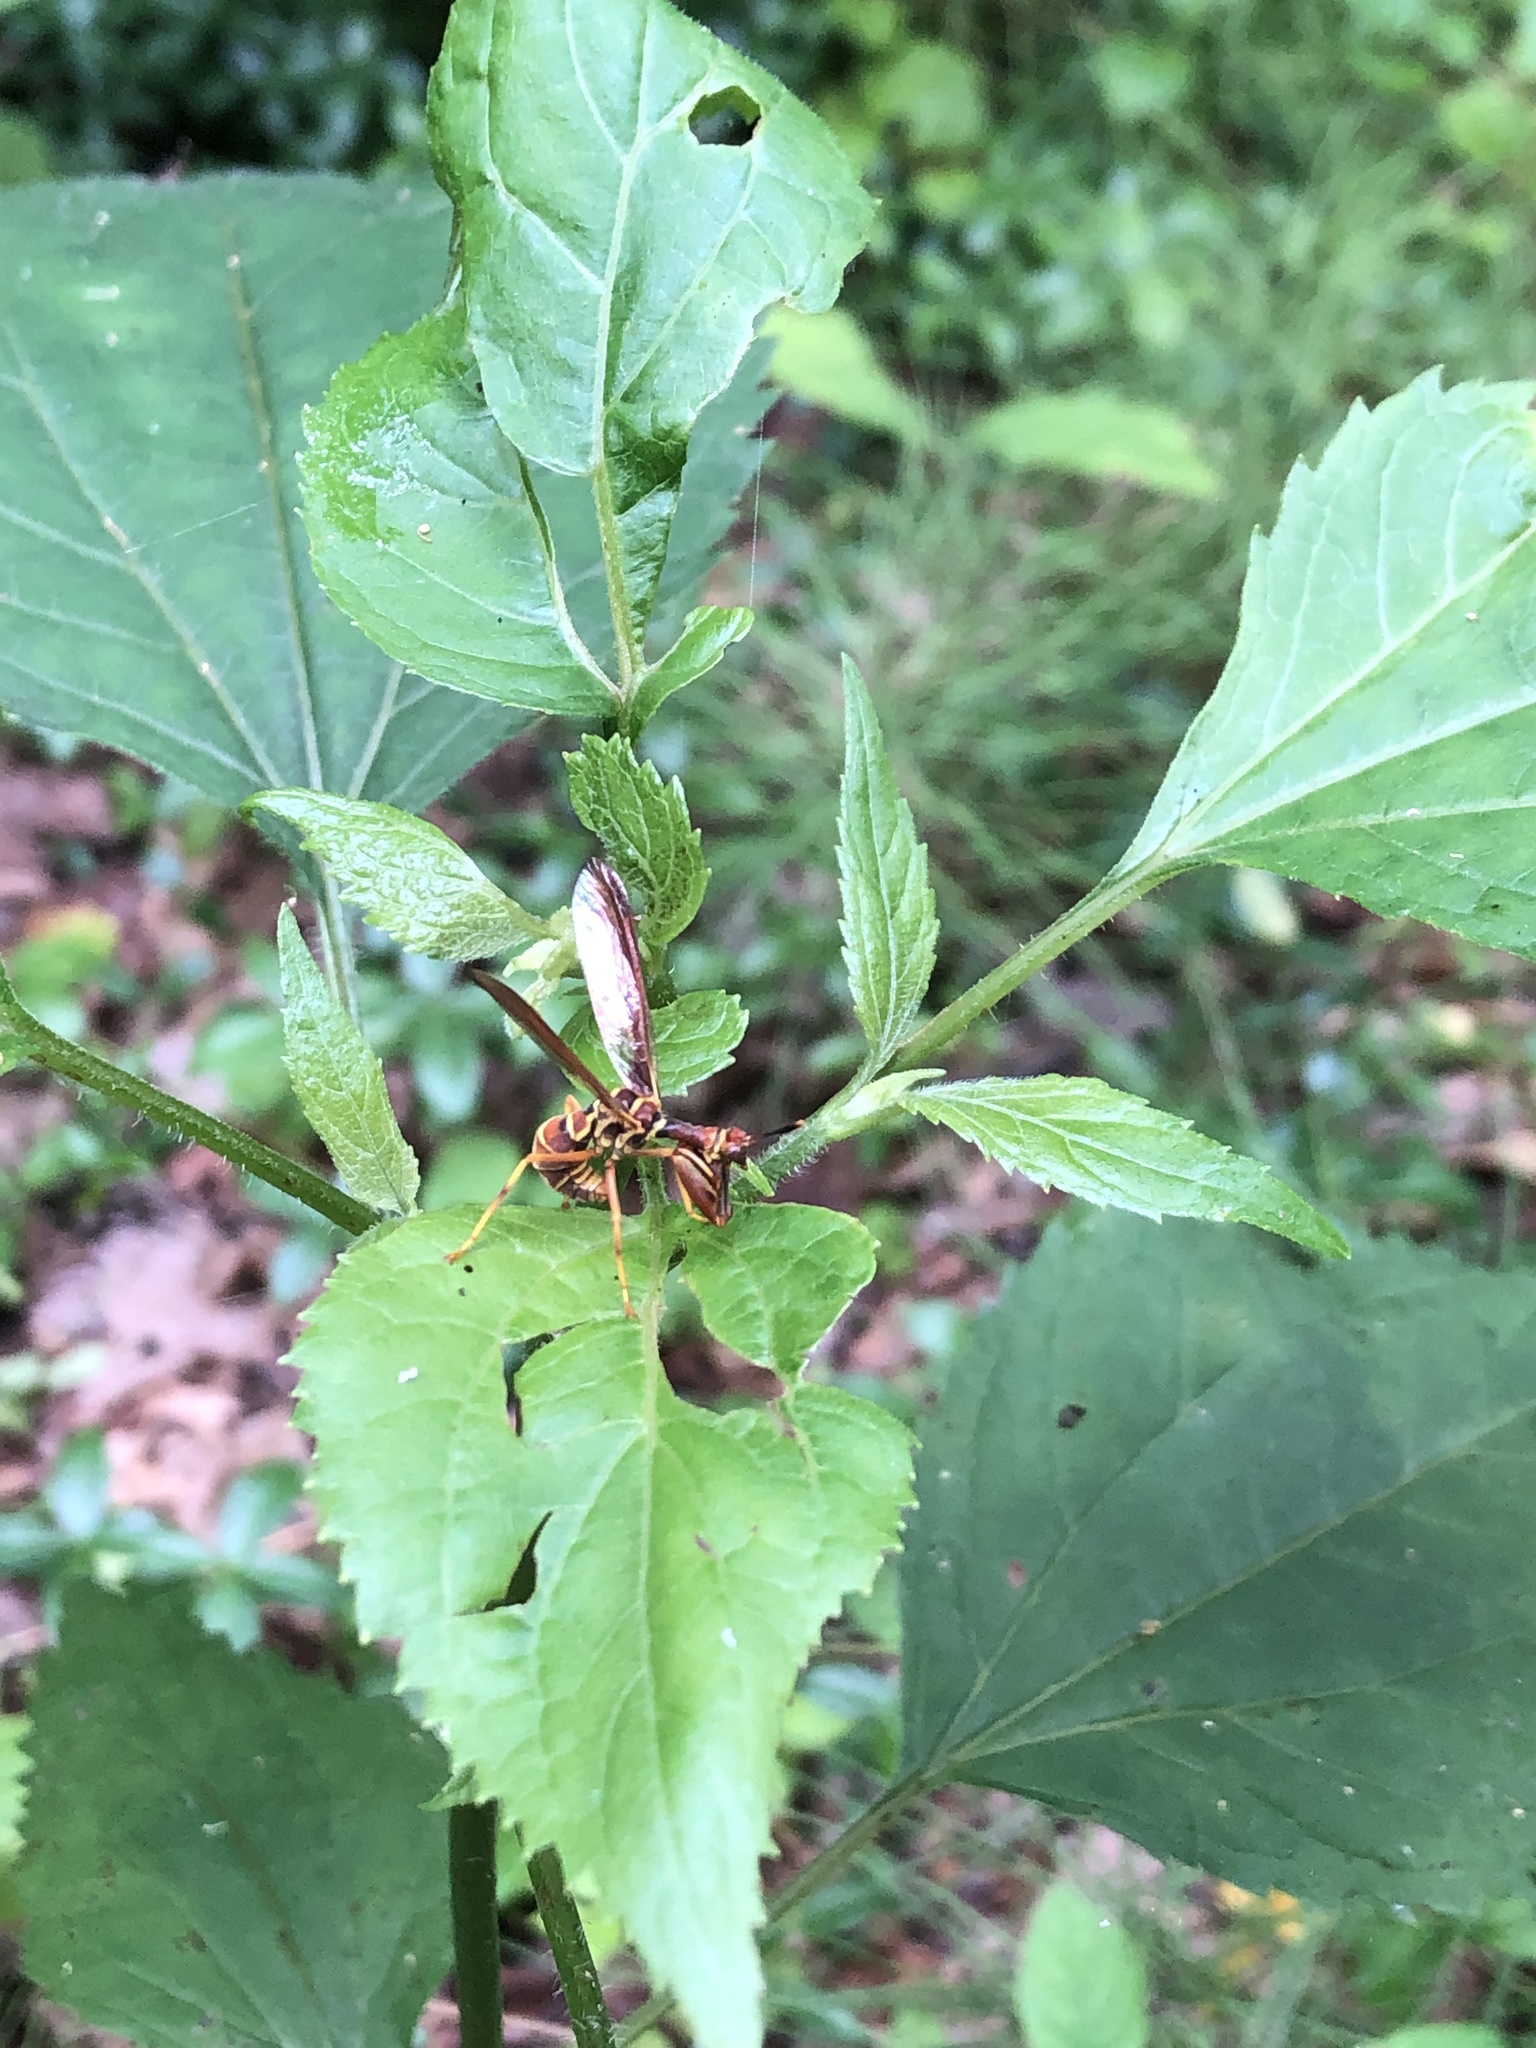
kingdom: Animalia
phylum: Arthropoda
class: Insecta
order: Neuroptera
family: Mantispidae
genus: Climaciella
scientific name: Climaciella brunnea
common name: Brown wasp mantidfly
